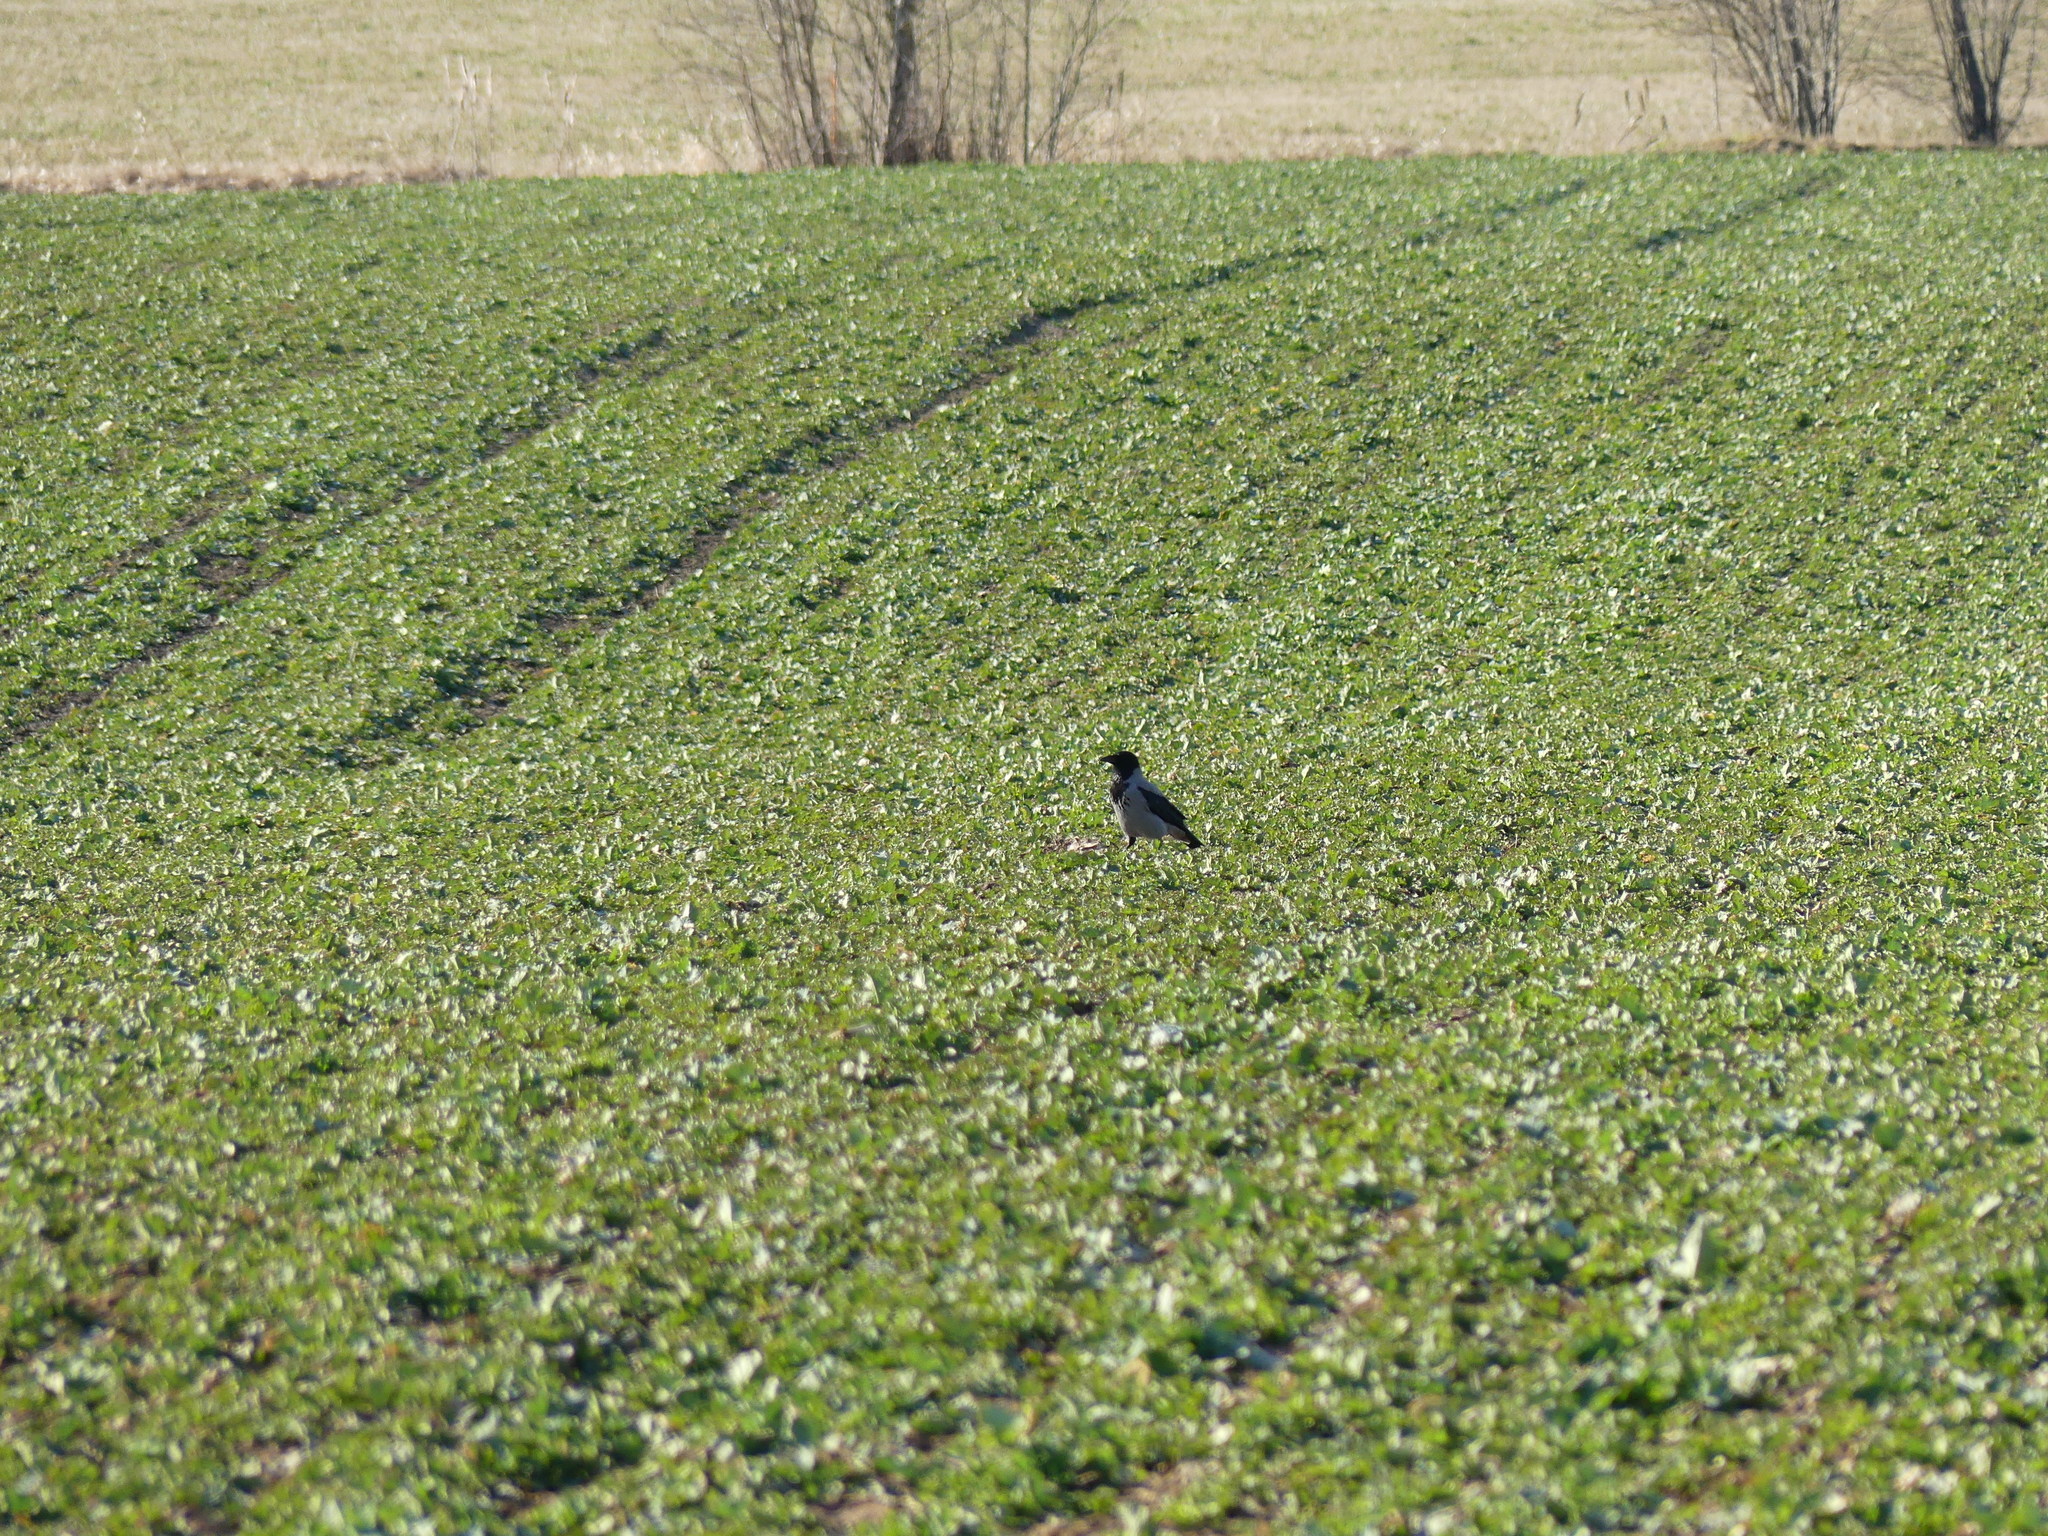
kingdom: Animalia
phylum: Chordata
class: Aves
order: Passeriformes
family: Corvidae
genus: Corvus
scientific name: Corvus cornix
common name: Hooded crow
